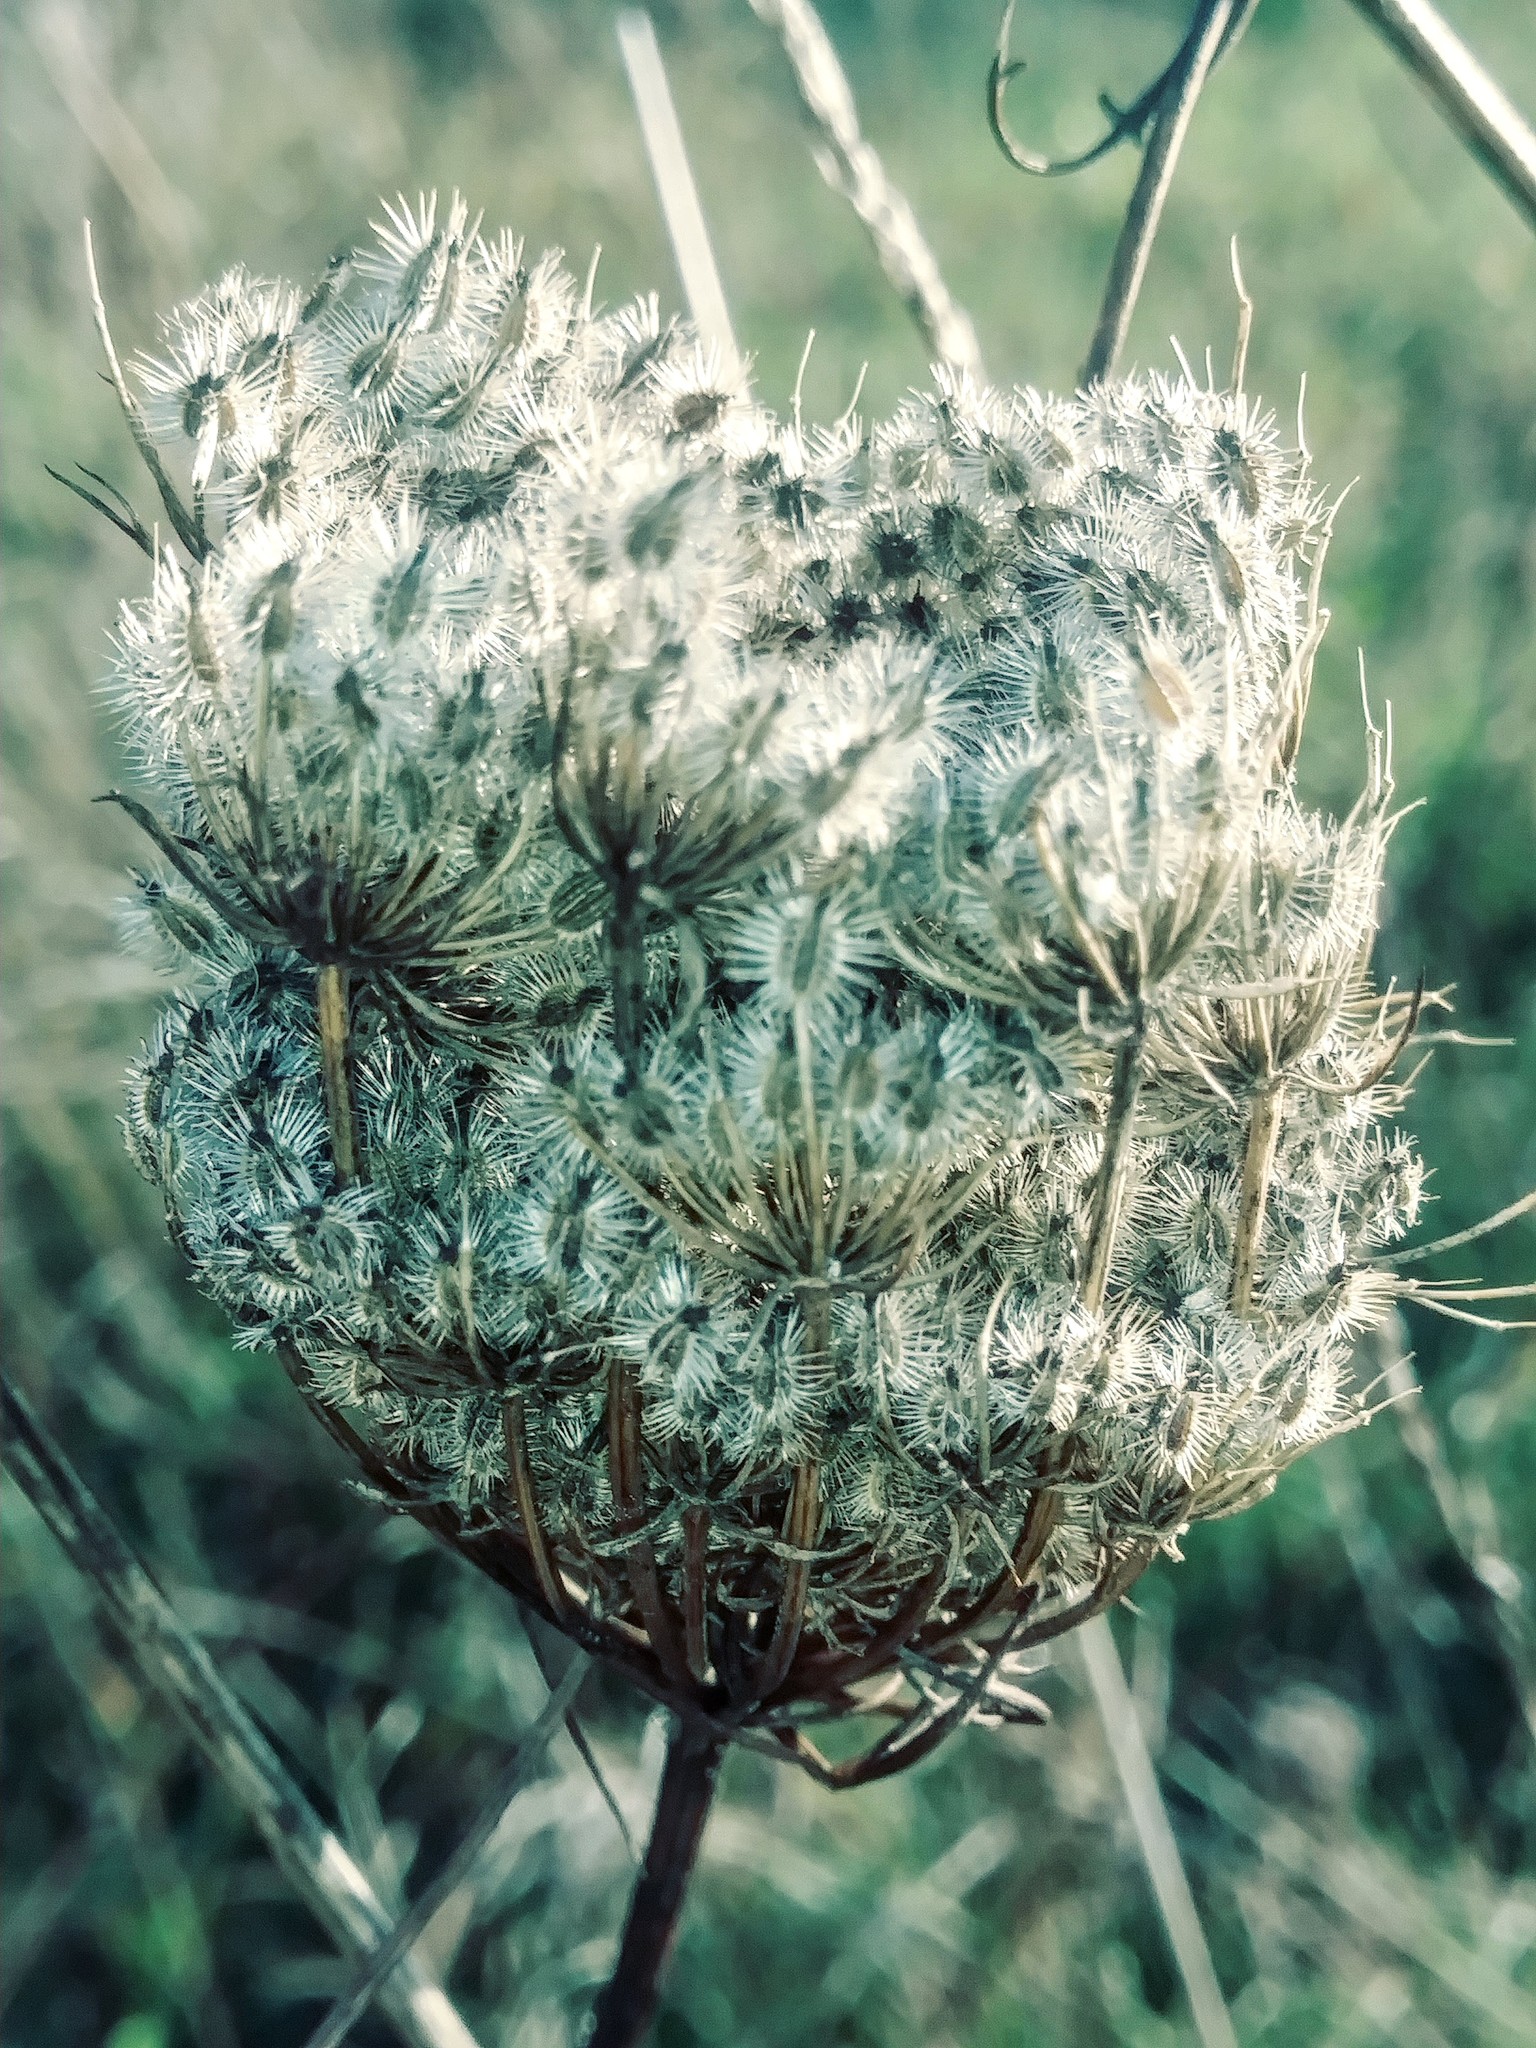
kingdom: Plantae
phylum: Tracheophyta
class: Magnoliopsida
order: Apiales
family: Apiaceae
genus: Daucus
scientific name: Daucus carota
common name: Wild carrot
